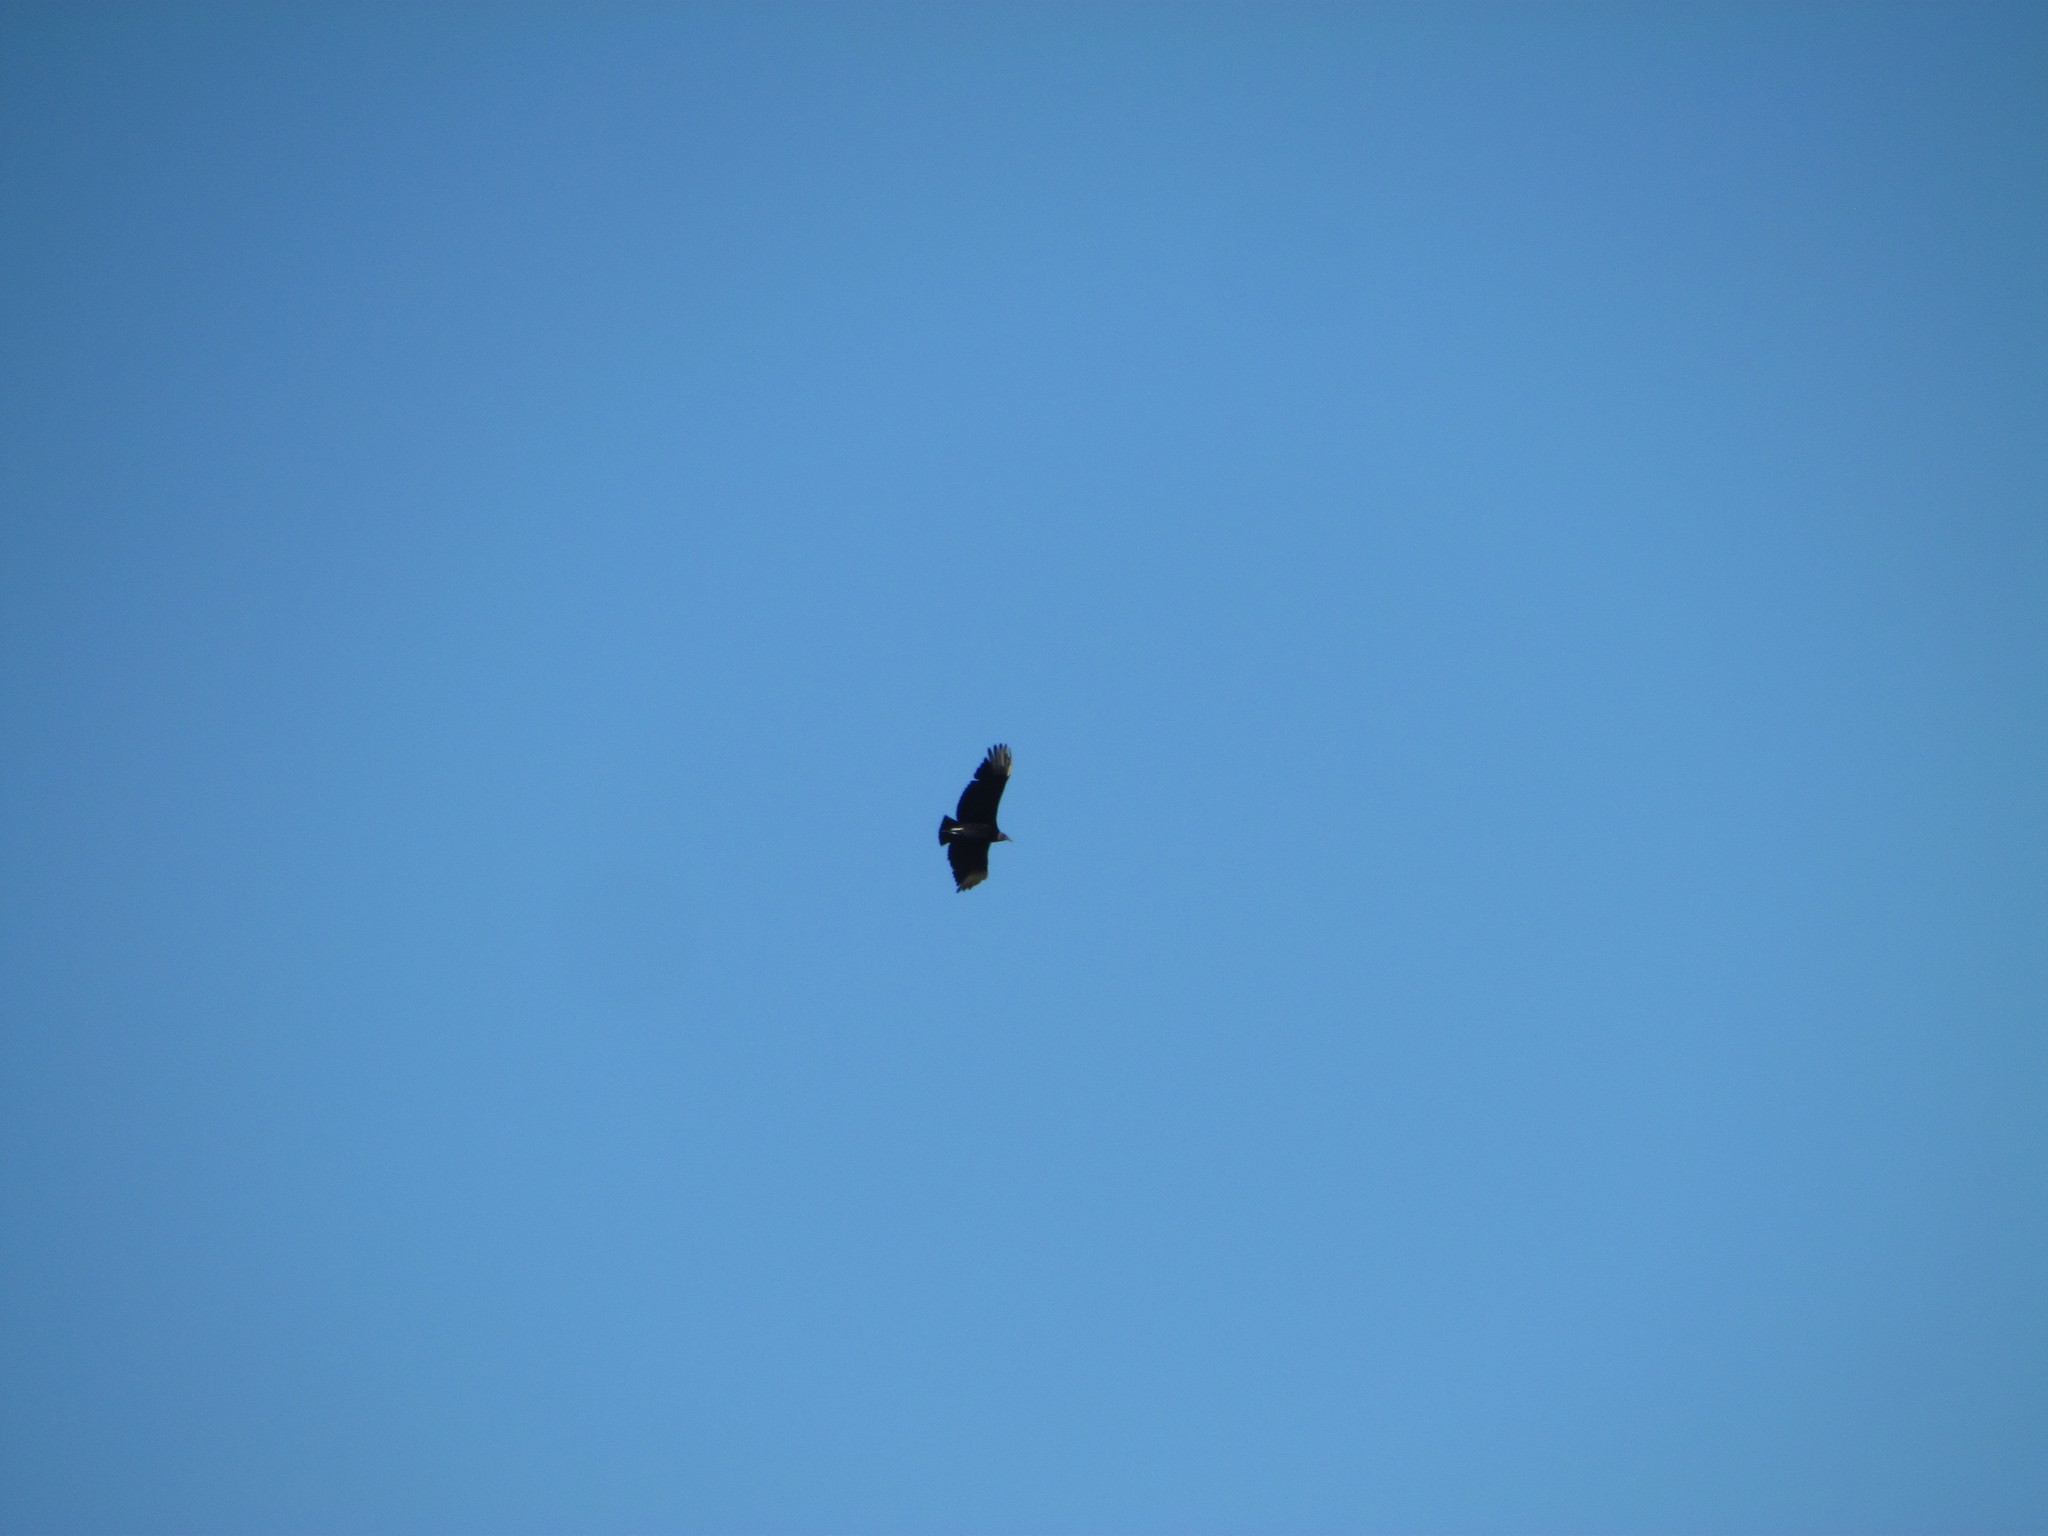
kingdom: Animalia
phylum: Chordata
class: Aves
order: Accipitriformes
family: Cathartidae
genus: Coragyps
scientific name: Coragyps atratus
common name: Black vulture
